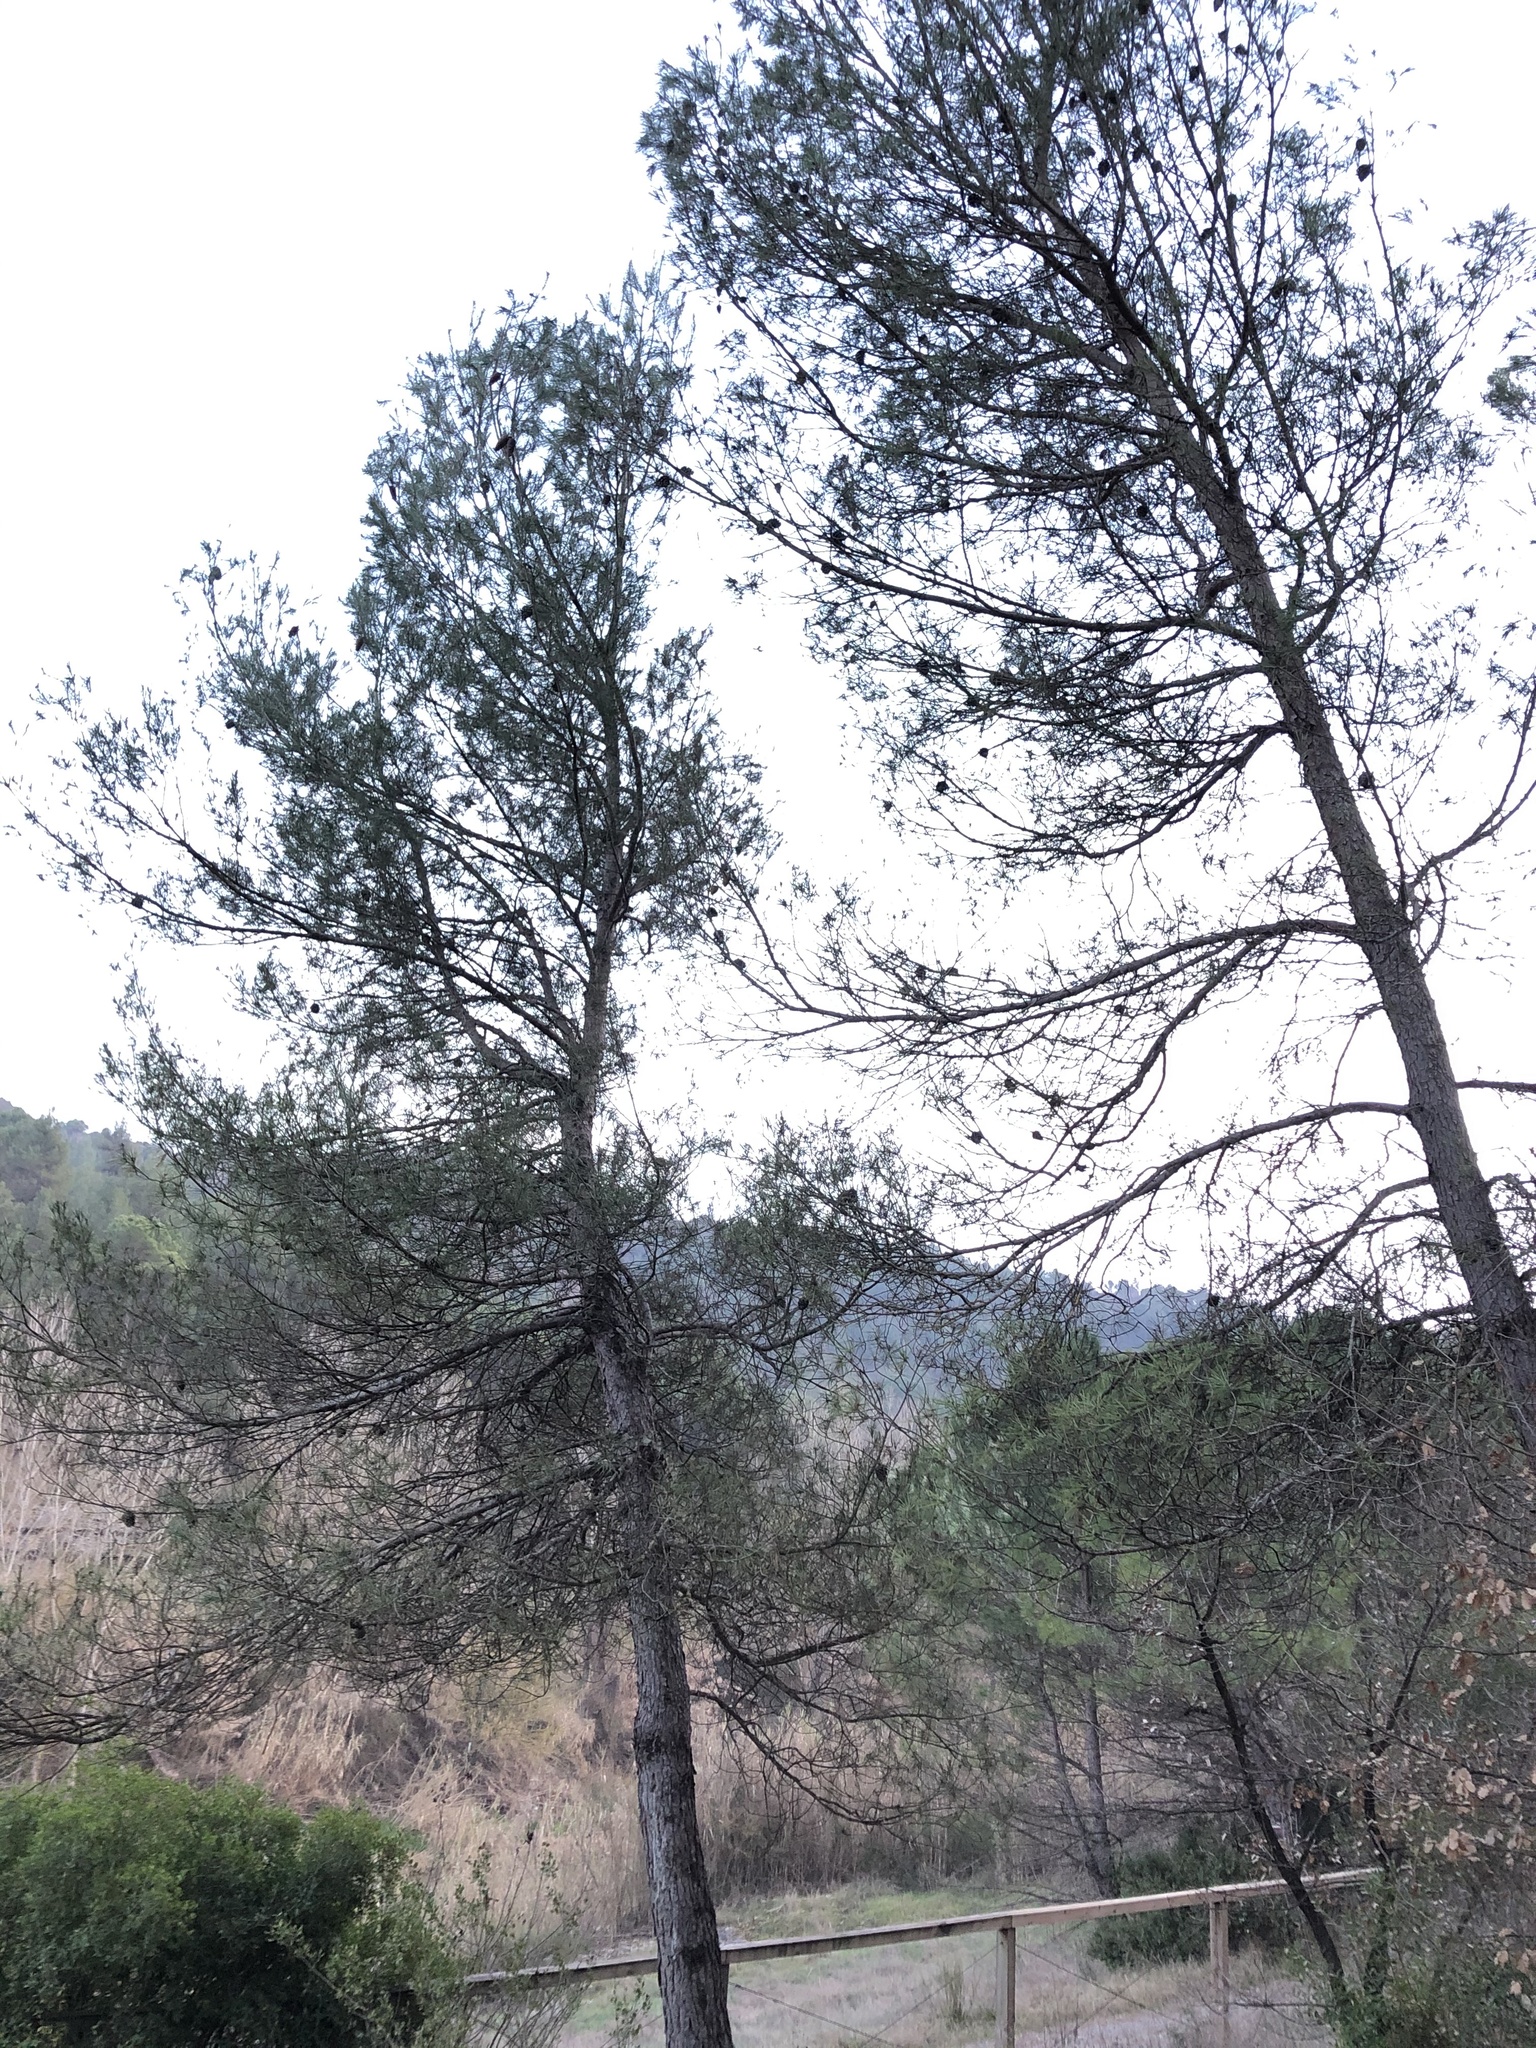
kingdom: Plantae
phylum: Tracheophyta
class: Pinopsida
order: Pinales
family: Pinaceae
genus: Pinus
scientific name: Pinus halepensis
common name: Aleppo pine
